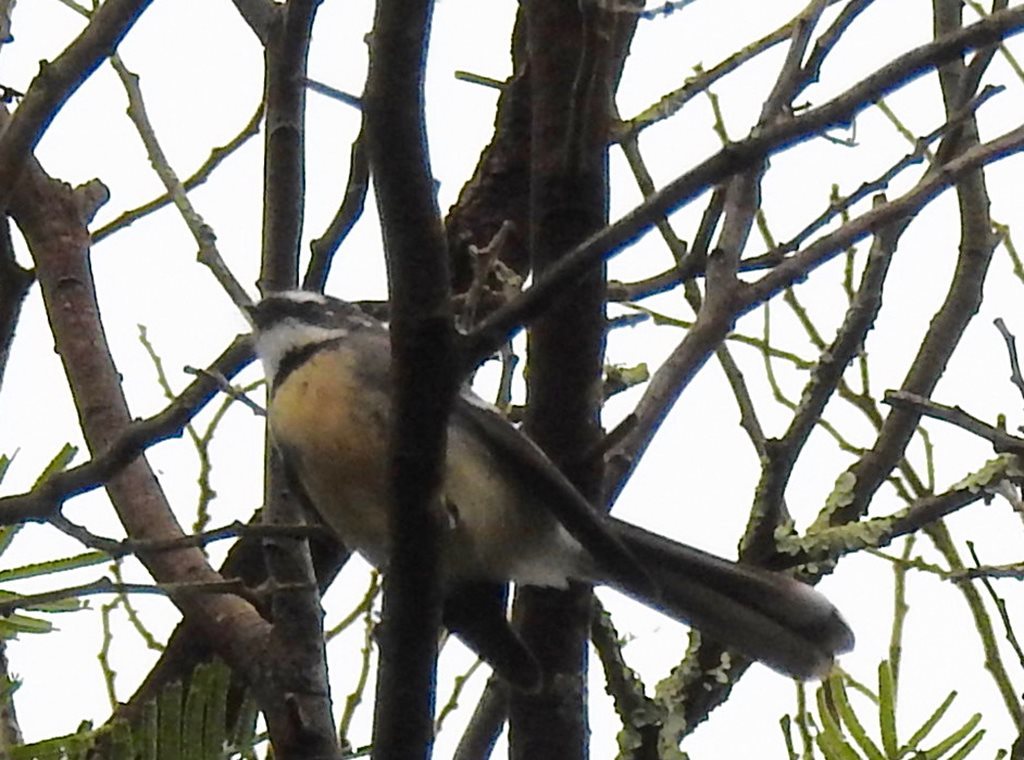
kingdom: Animalia
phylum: Chordata
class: Aves
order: Passeriformes
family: Rhipiduridae
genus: Rhipidura
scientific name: Rhipidura albiscapa
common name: Grey fantail
